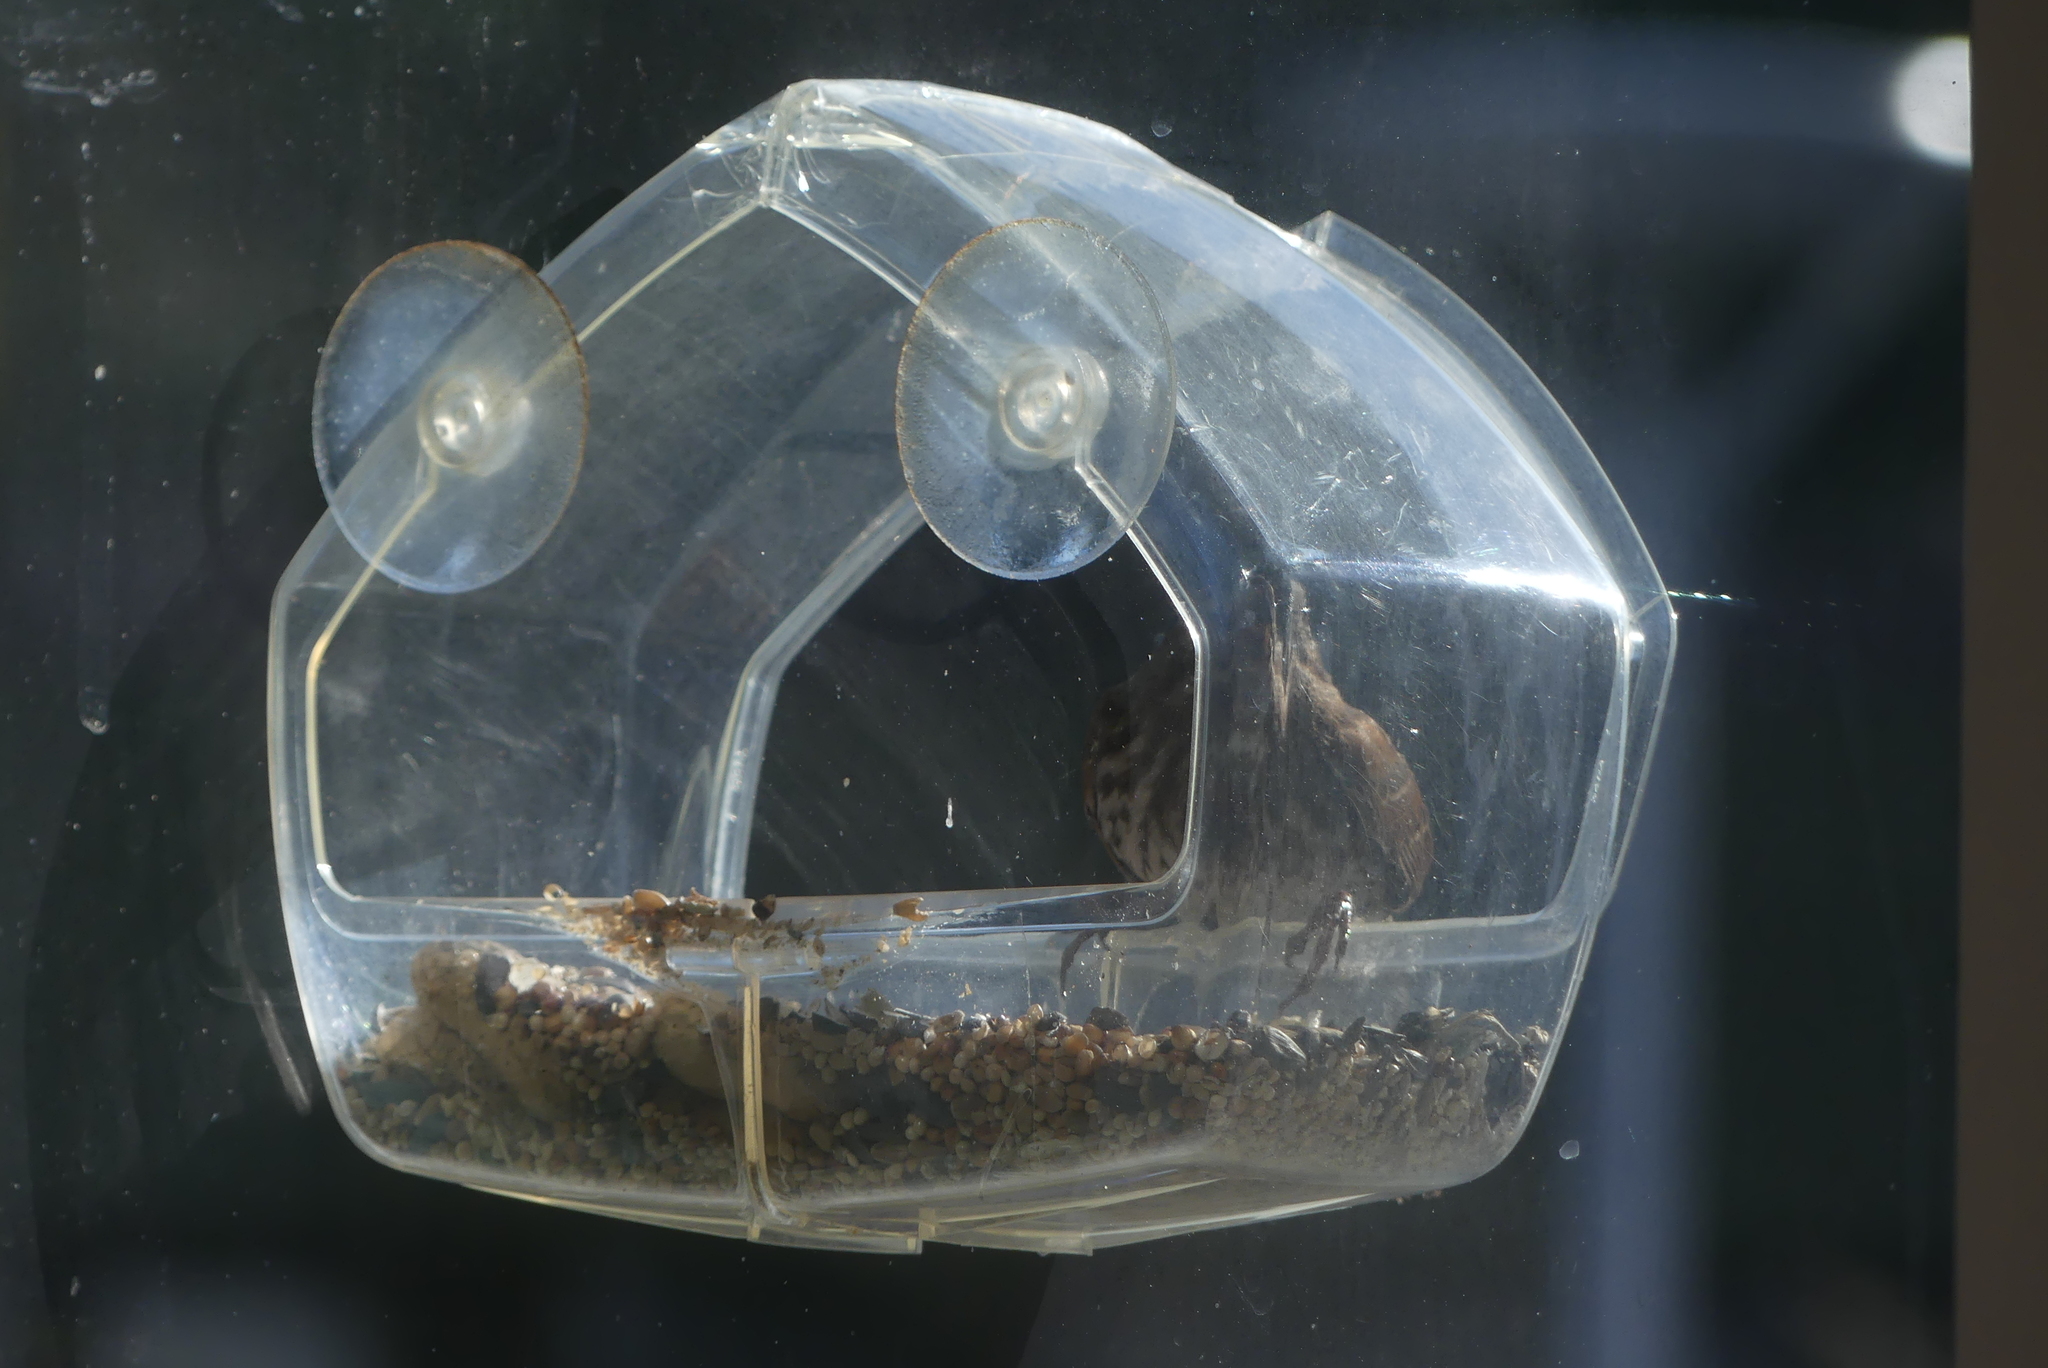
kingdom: Animalia
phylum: Chordata
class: Aves
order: Passeriformes
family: Passerellidae
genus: Melospiza
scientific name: Melospiza melodia
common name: Song sparrow
